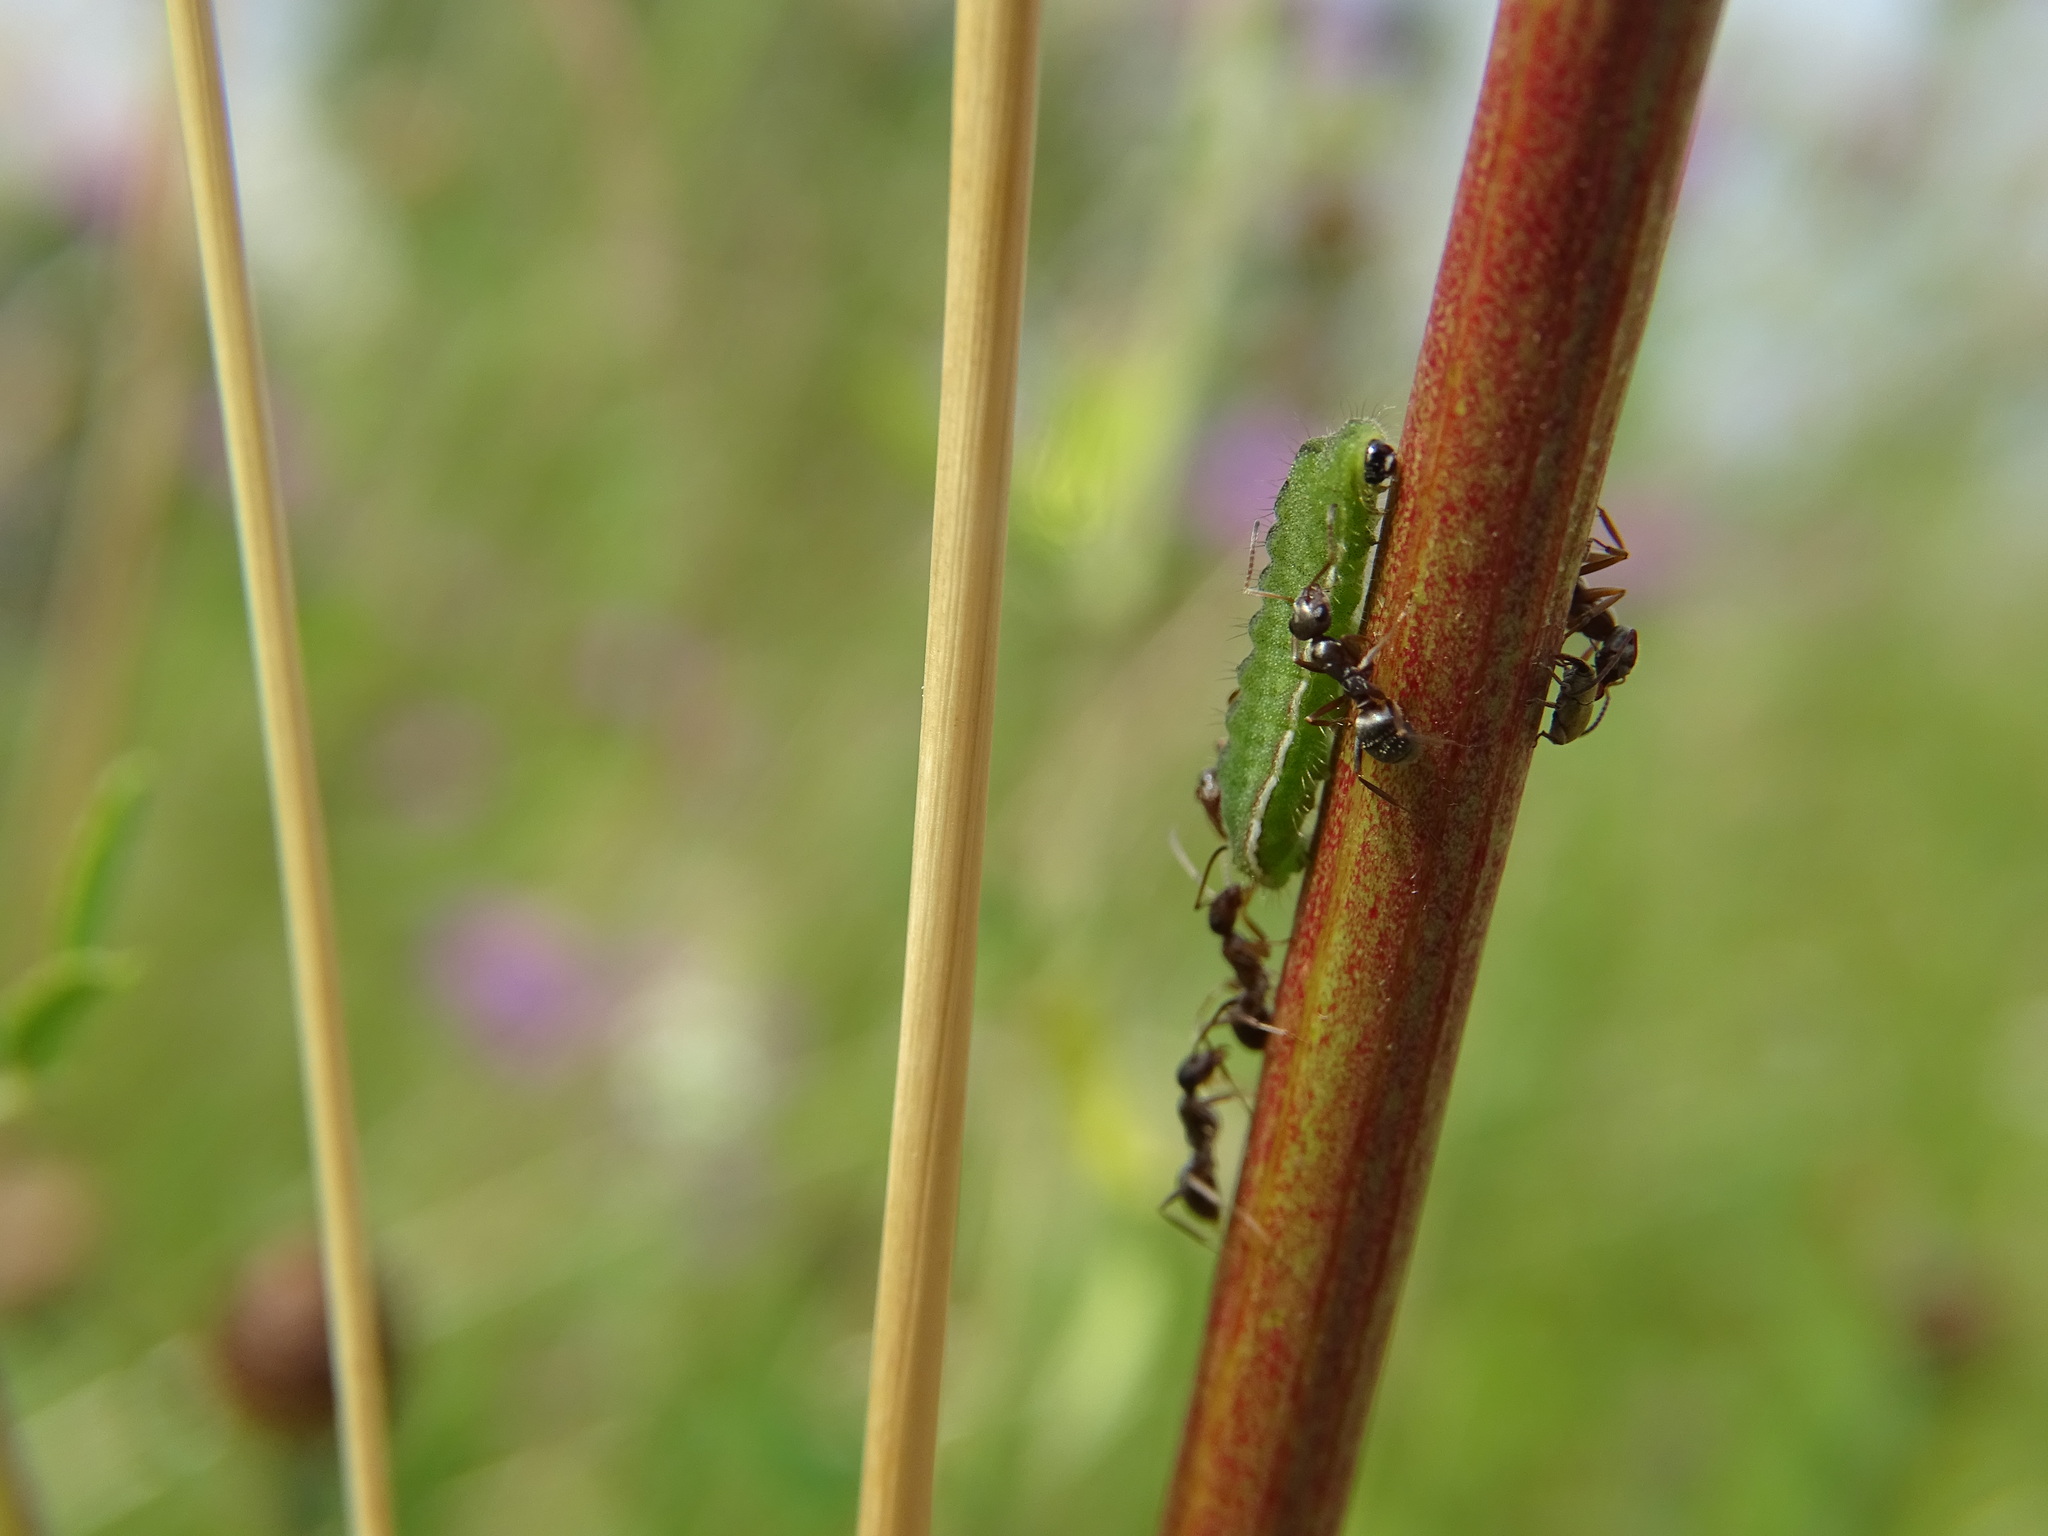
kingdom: Animalia
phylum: Arthropoda
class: Insecta
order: Lepidoptera
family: Lycaenidae
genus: Lycaeides
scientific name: Lycaeides idas
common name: Northern blue
